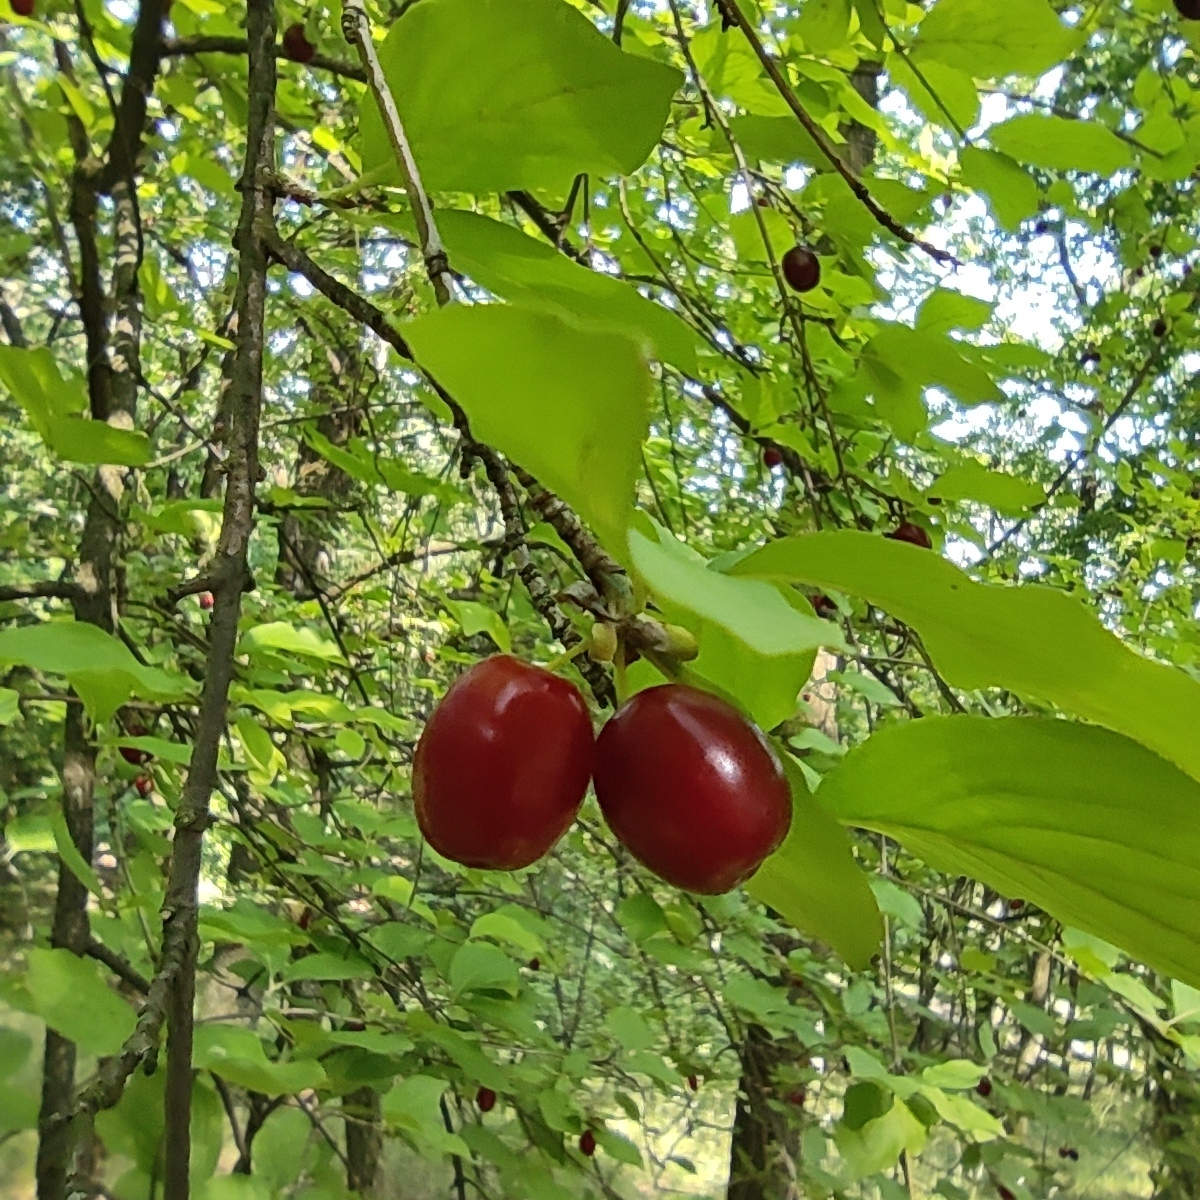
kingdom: Plantae
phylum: Tracheophyta
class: Magnoliopsida
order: Cornales
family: Cornaceae
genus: Cornus
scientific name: Cornus mas
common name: Cornelian-cherry
